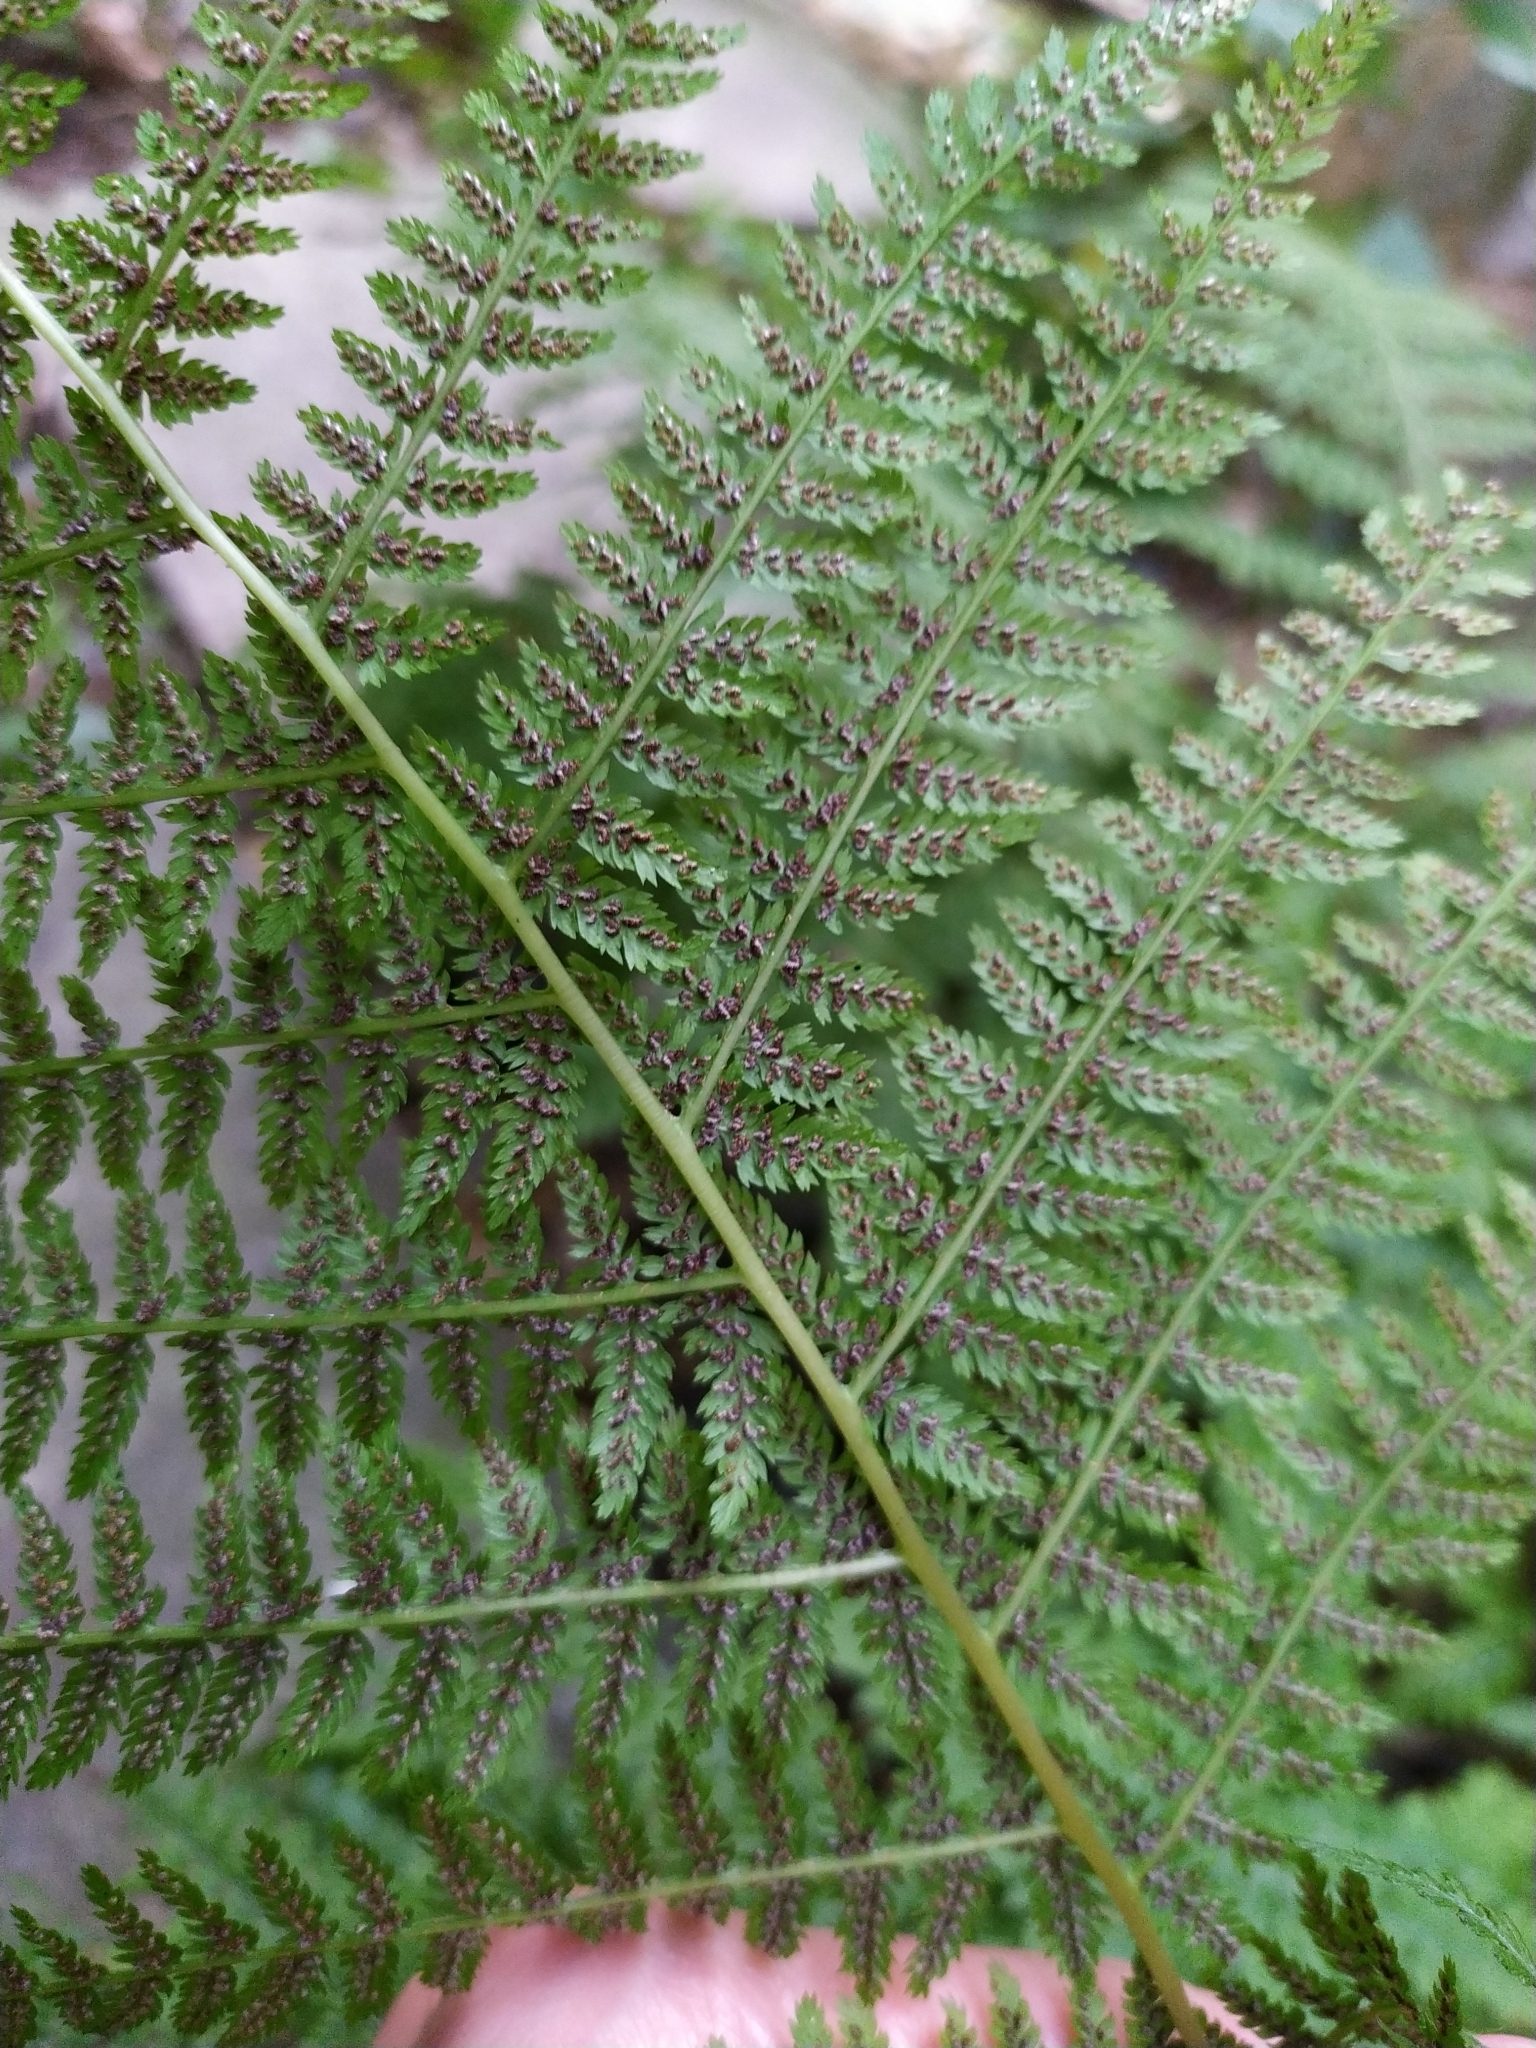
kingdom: Plantae
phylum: Tracheophyta
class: Polypodiopsida
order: Polypodiales
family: Athyriaceae
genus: Athyrium
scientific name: Athyrium filix-femina
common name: Lady fern
